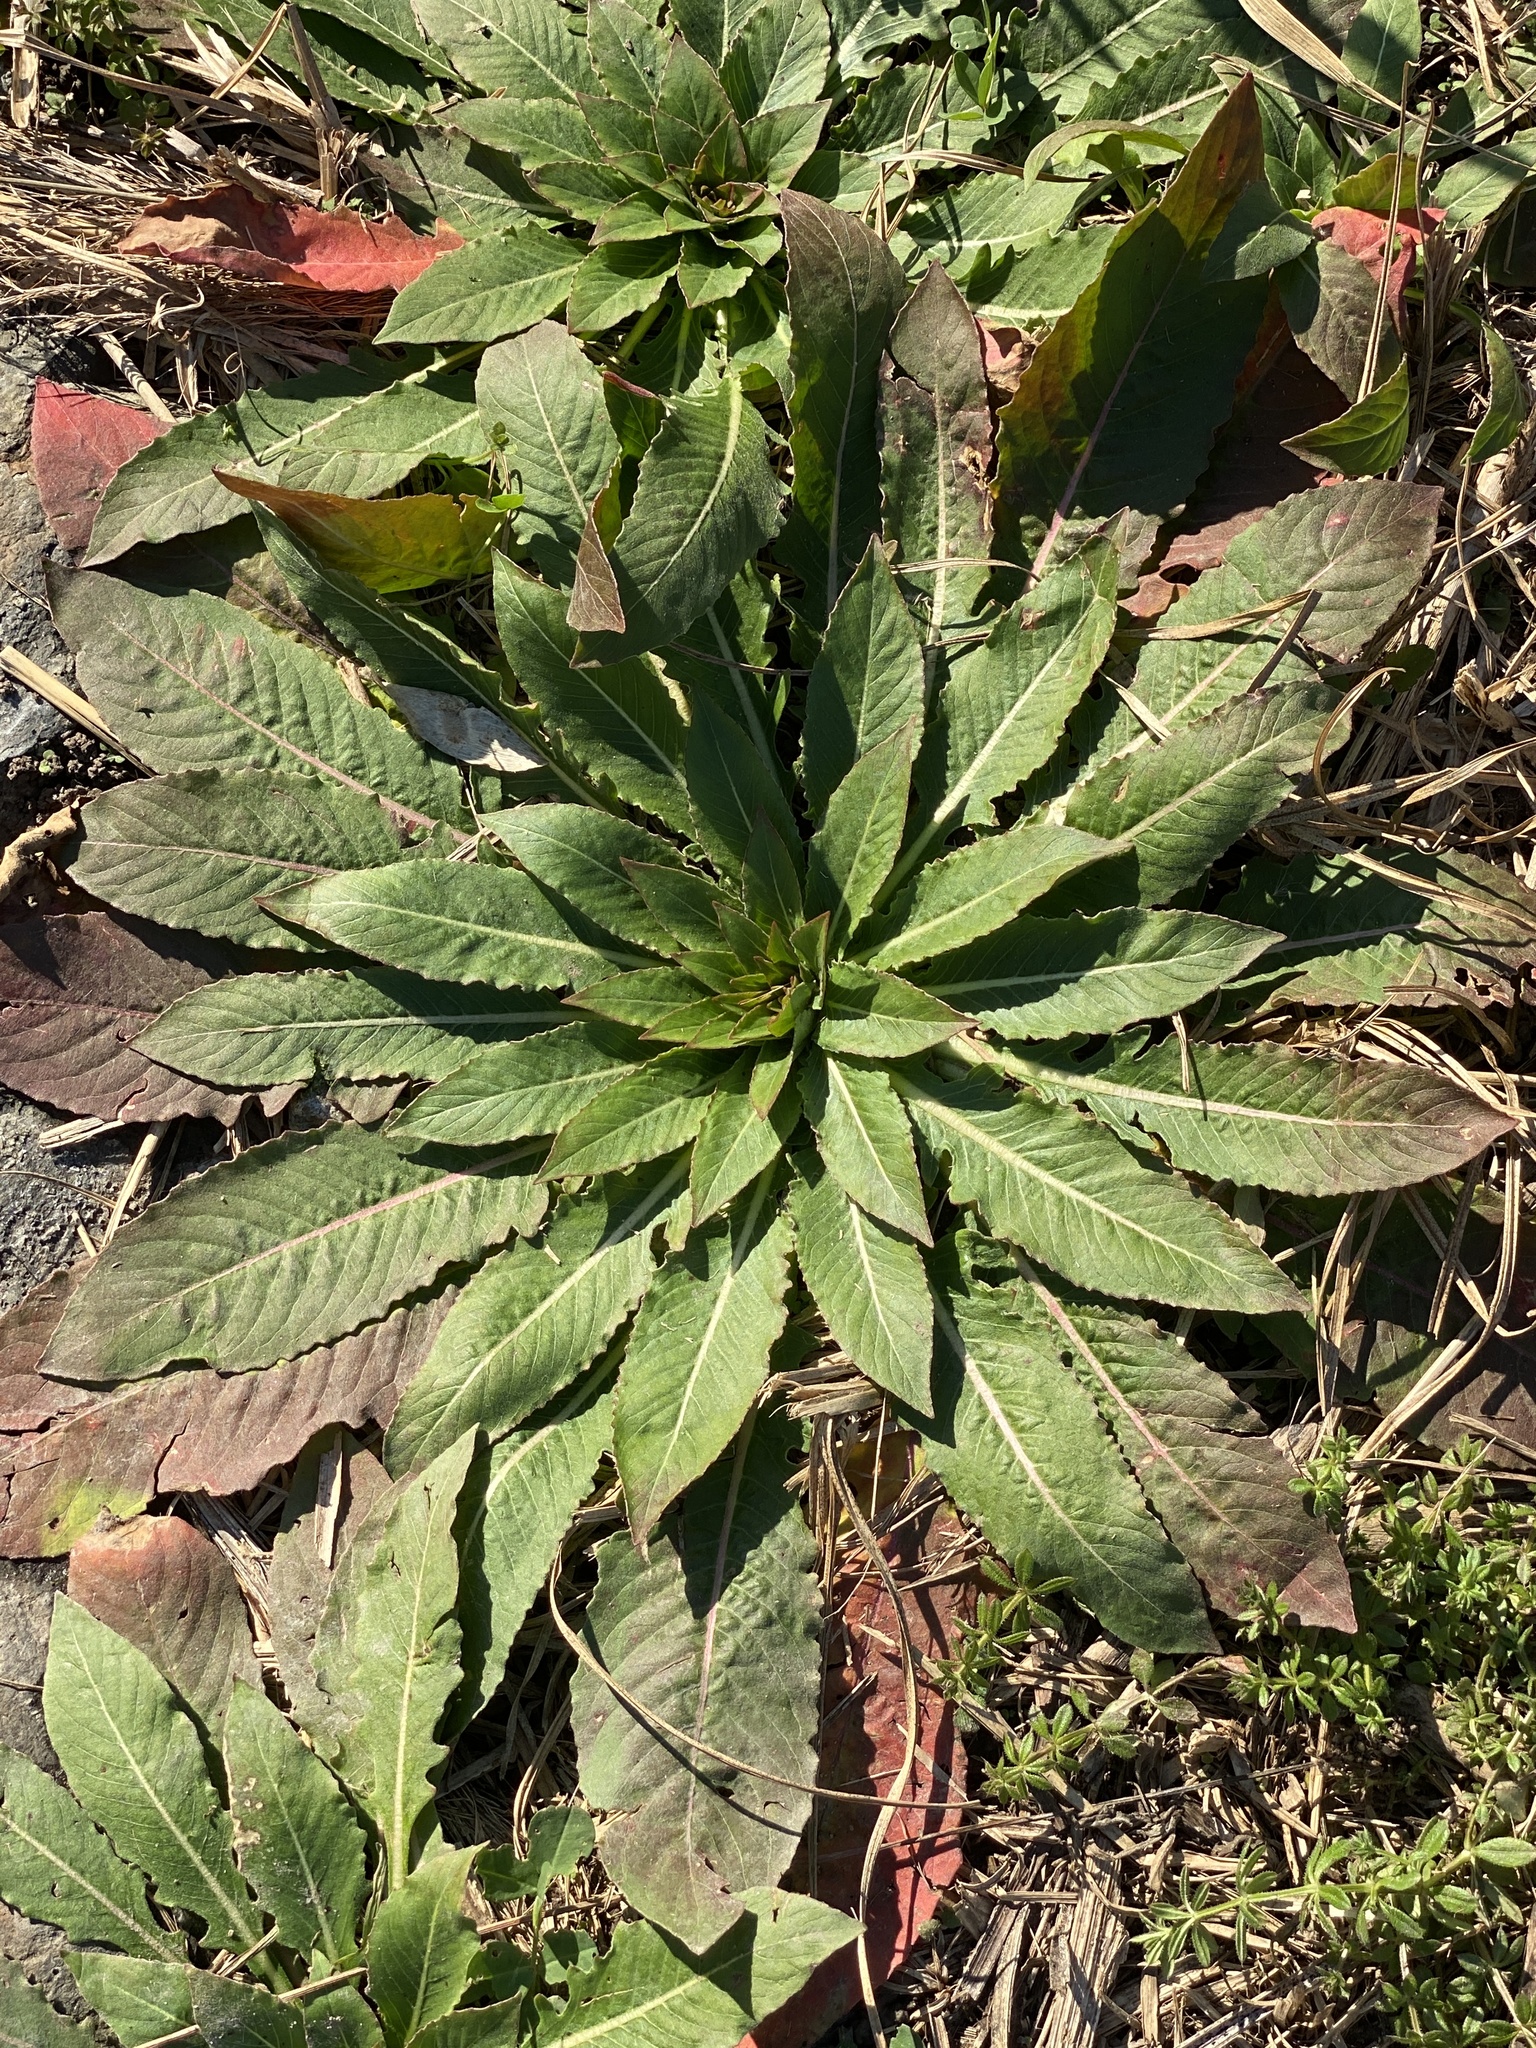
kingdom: Plantae
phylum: Tracheophyta
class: Magnoliopsida
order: Myrtales
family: Onagraceae
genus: Oenothera
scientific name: Oenothera biennis
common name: Common evening-primrose
